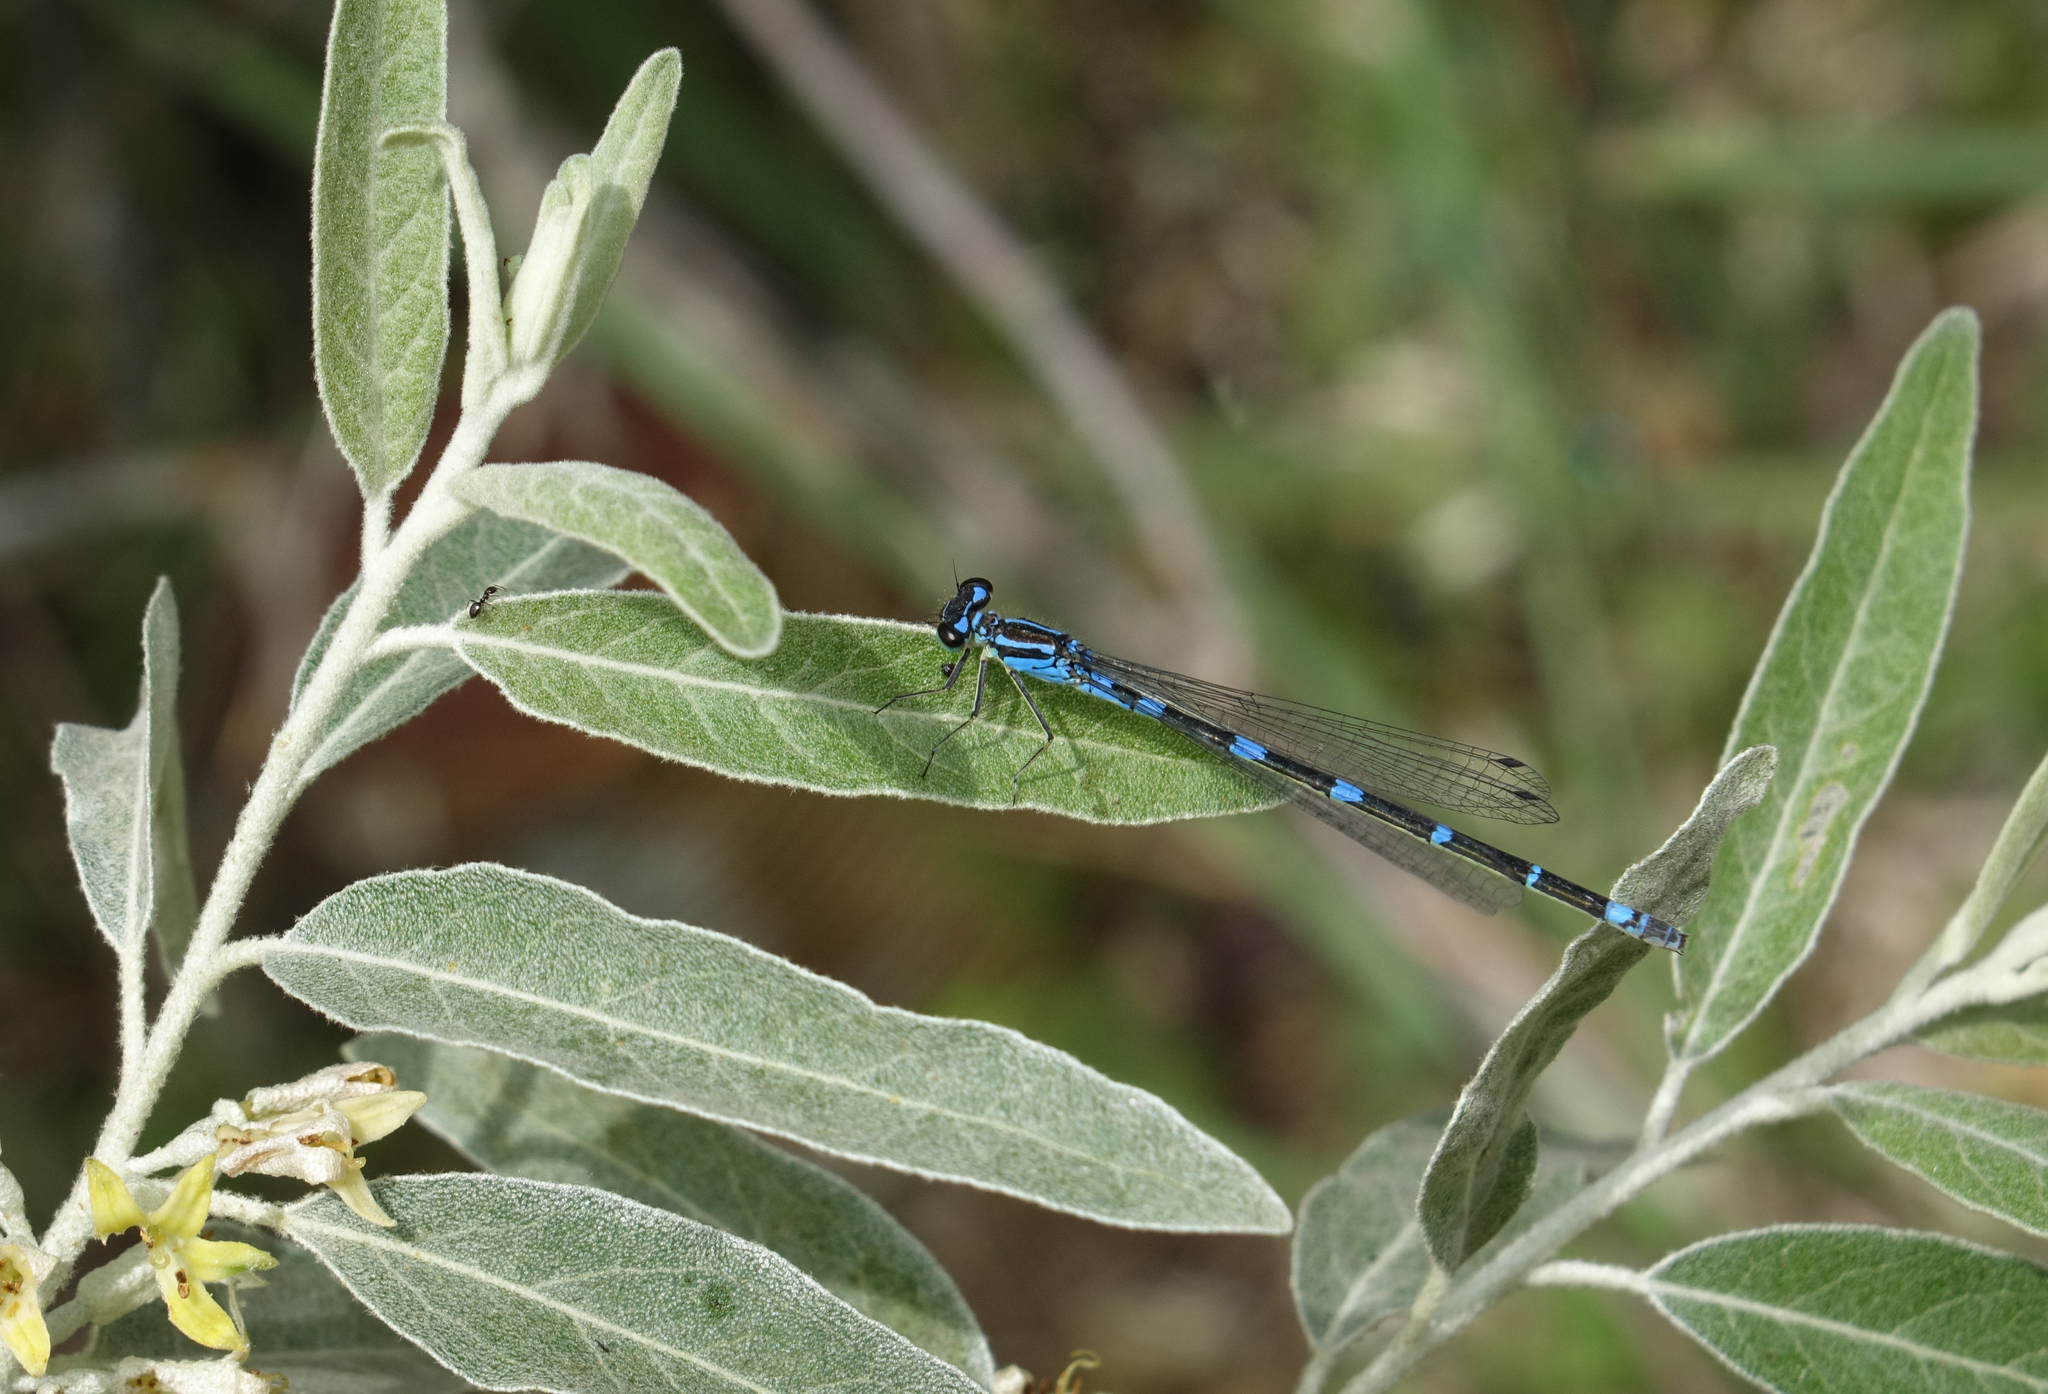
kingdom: Animalia
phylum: Arthropoda
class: Insecta
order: Odonata
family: Coenagrionidae
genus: Coenagrion
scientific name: Coenagrion pulchellum
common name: Variable bluet
